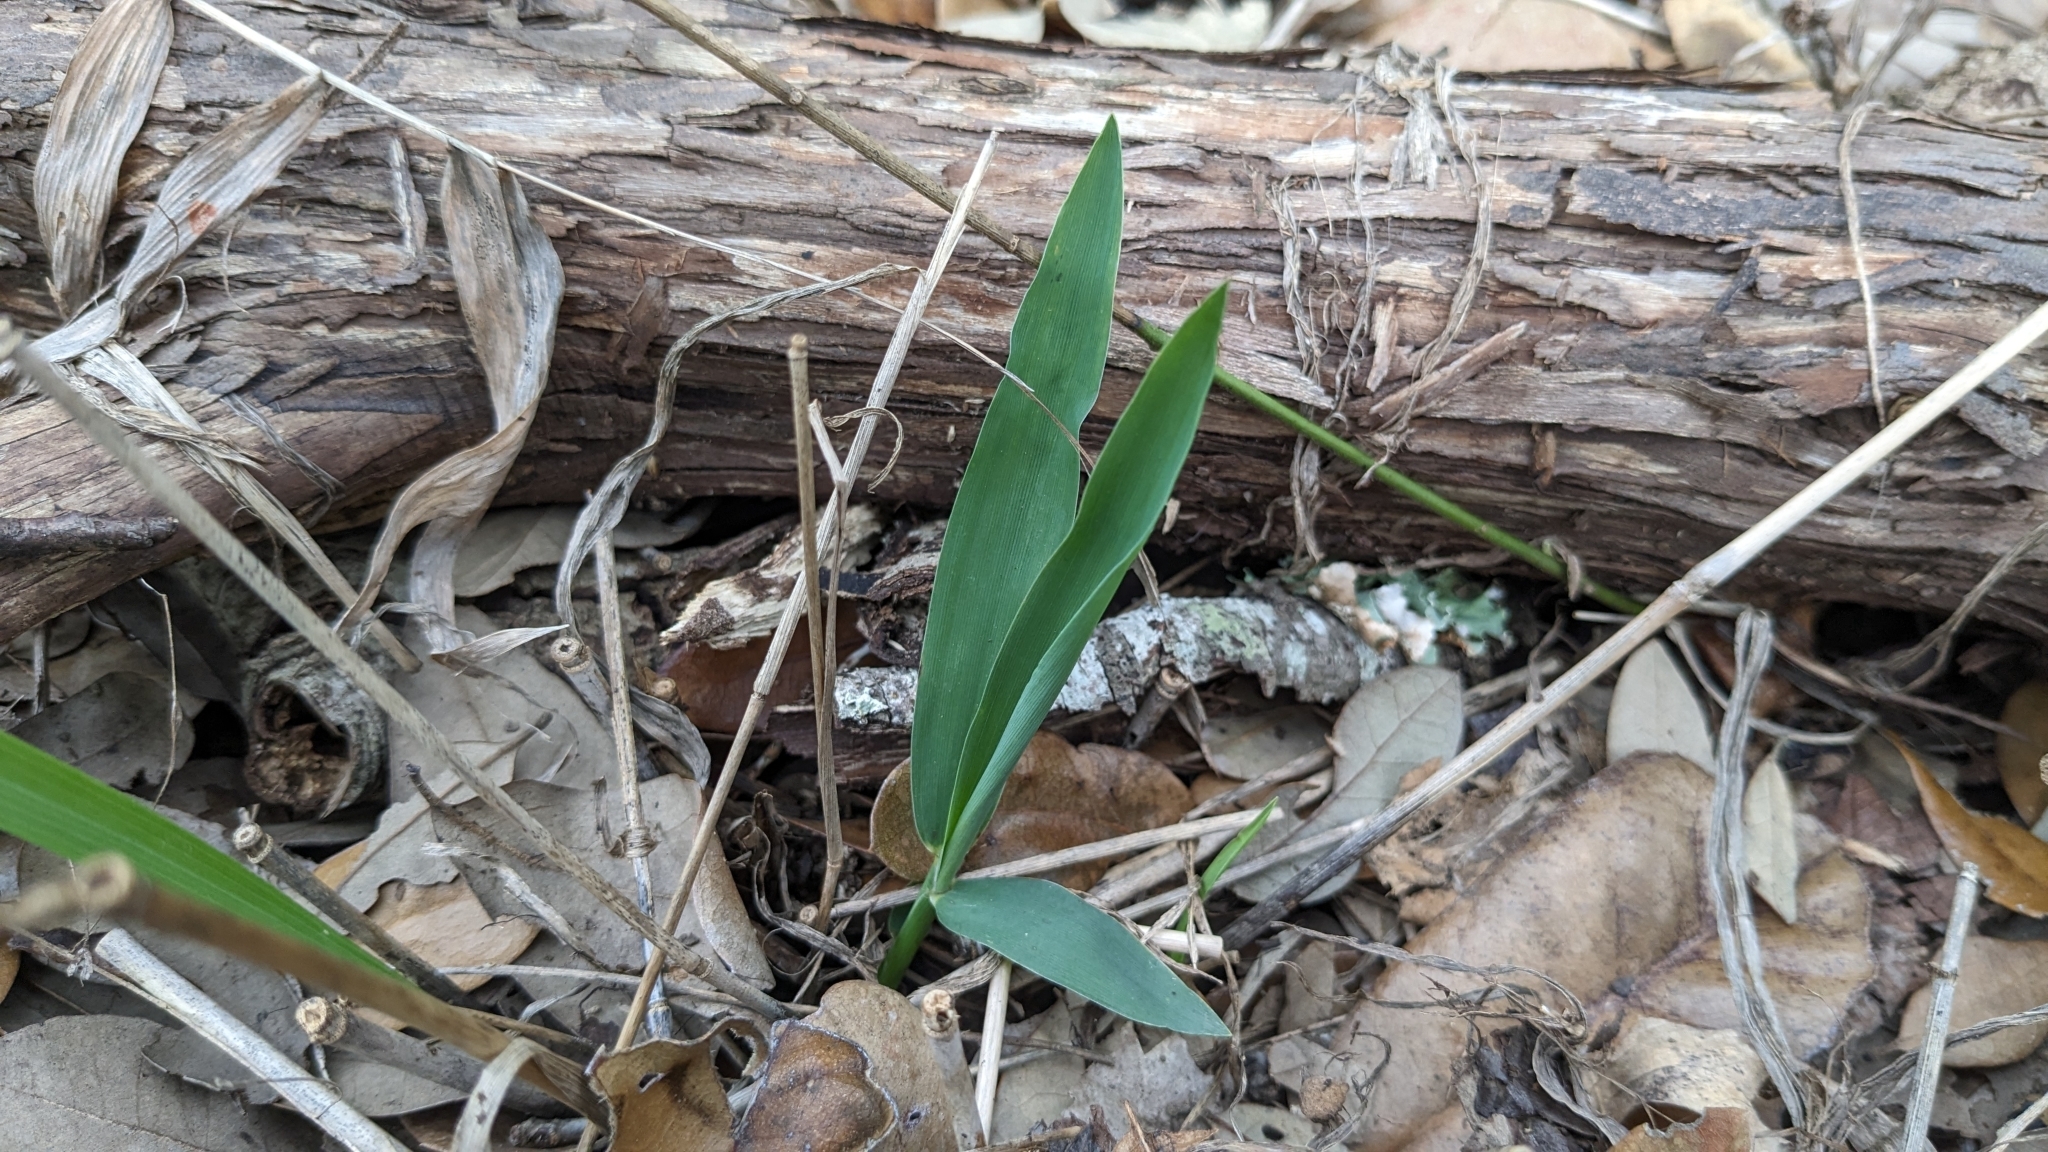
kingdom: Plantae
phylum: Tracheophyta
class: Liliopsida
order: Poales
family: Poaceae
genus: Chasmanthium
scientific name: Chasmanthium latifolium
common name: Broad-leaved chasmanthium
